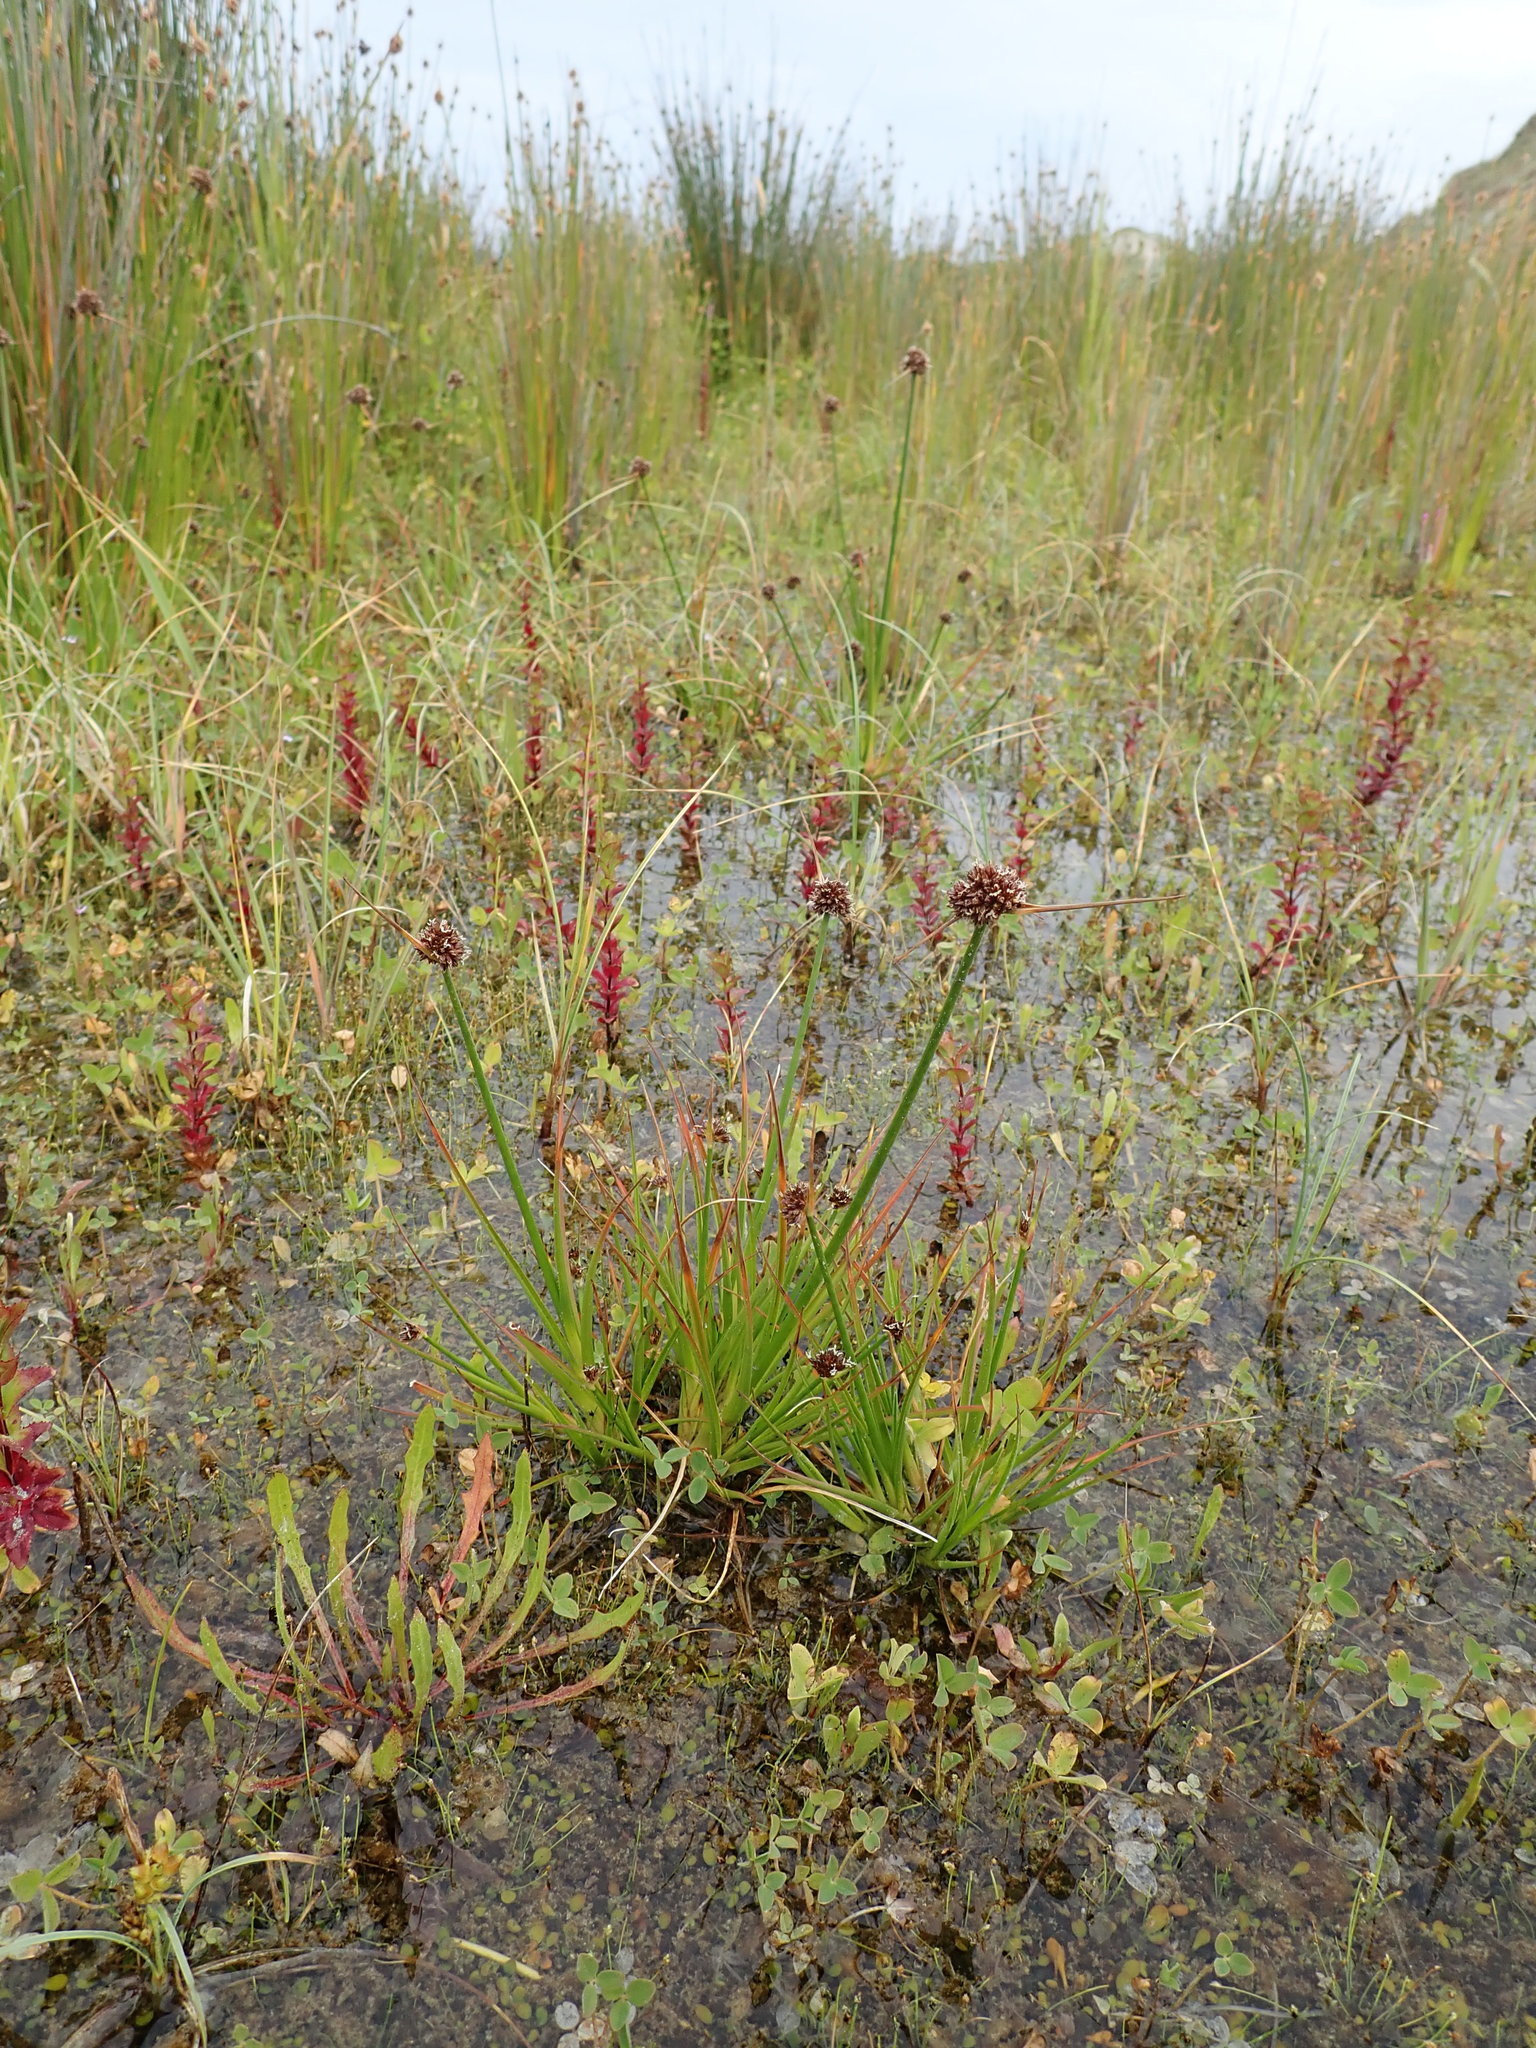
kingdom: Plantae
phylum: Tracheophyta
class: Liliopsida
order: Poales
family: Juncaceae
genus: Juncus
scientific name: Juncus caespiticius
